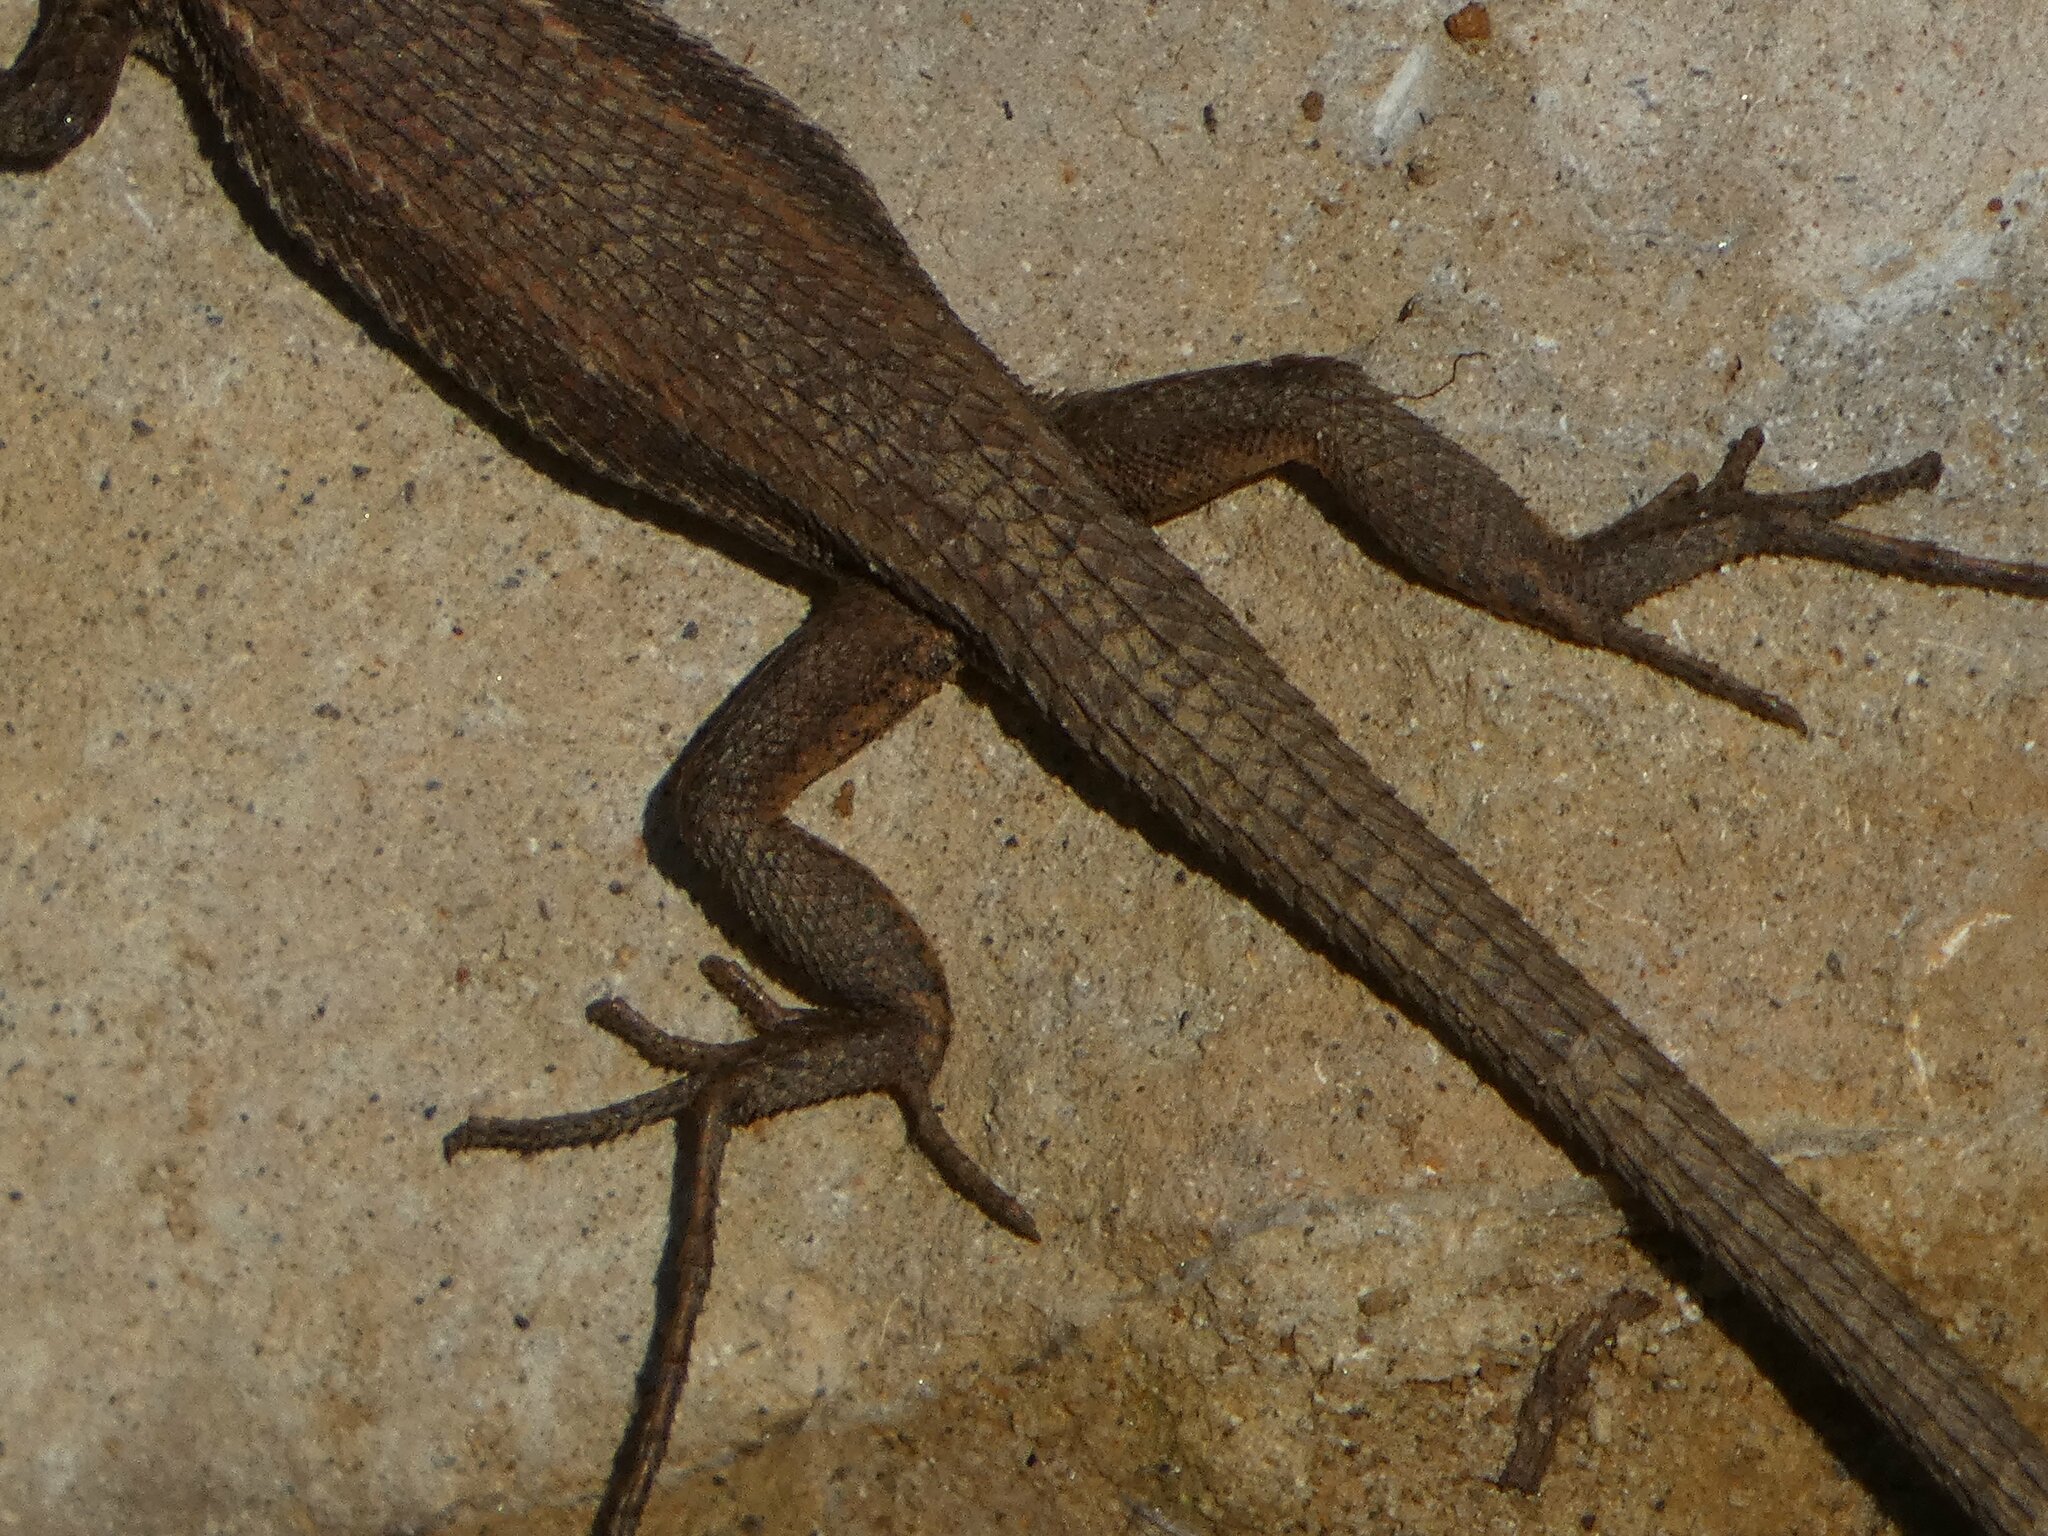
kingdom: Animalia
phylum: Chordata
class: Squamata
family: Lacertidae
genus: Ophisops
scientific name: Ophisops elegans
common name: Snake-eyed lizard
